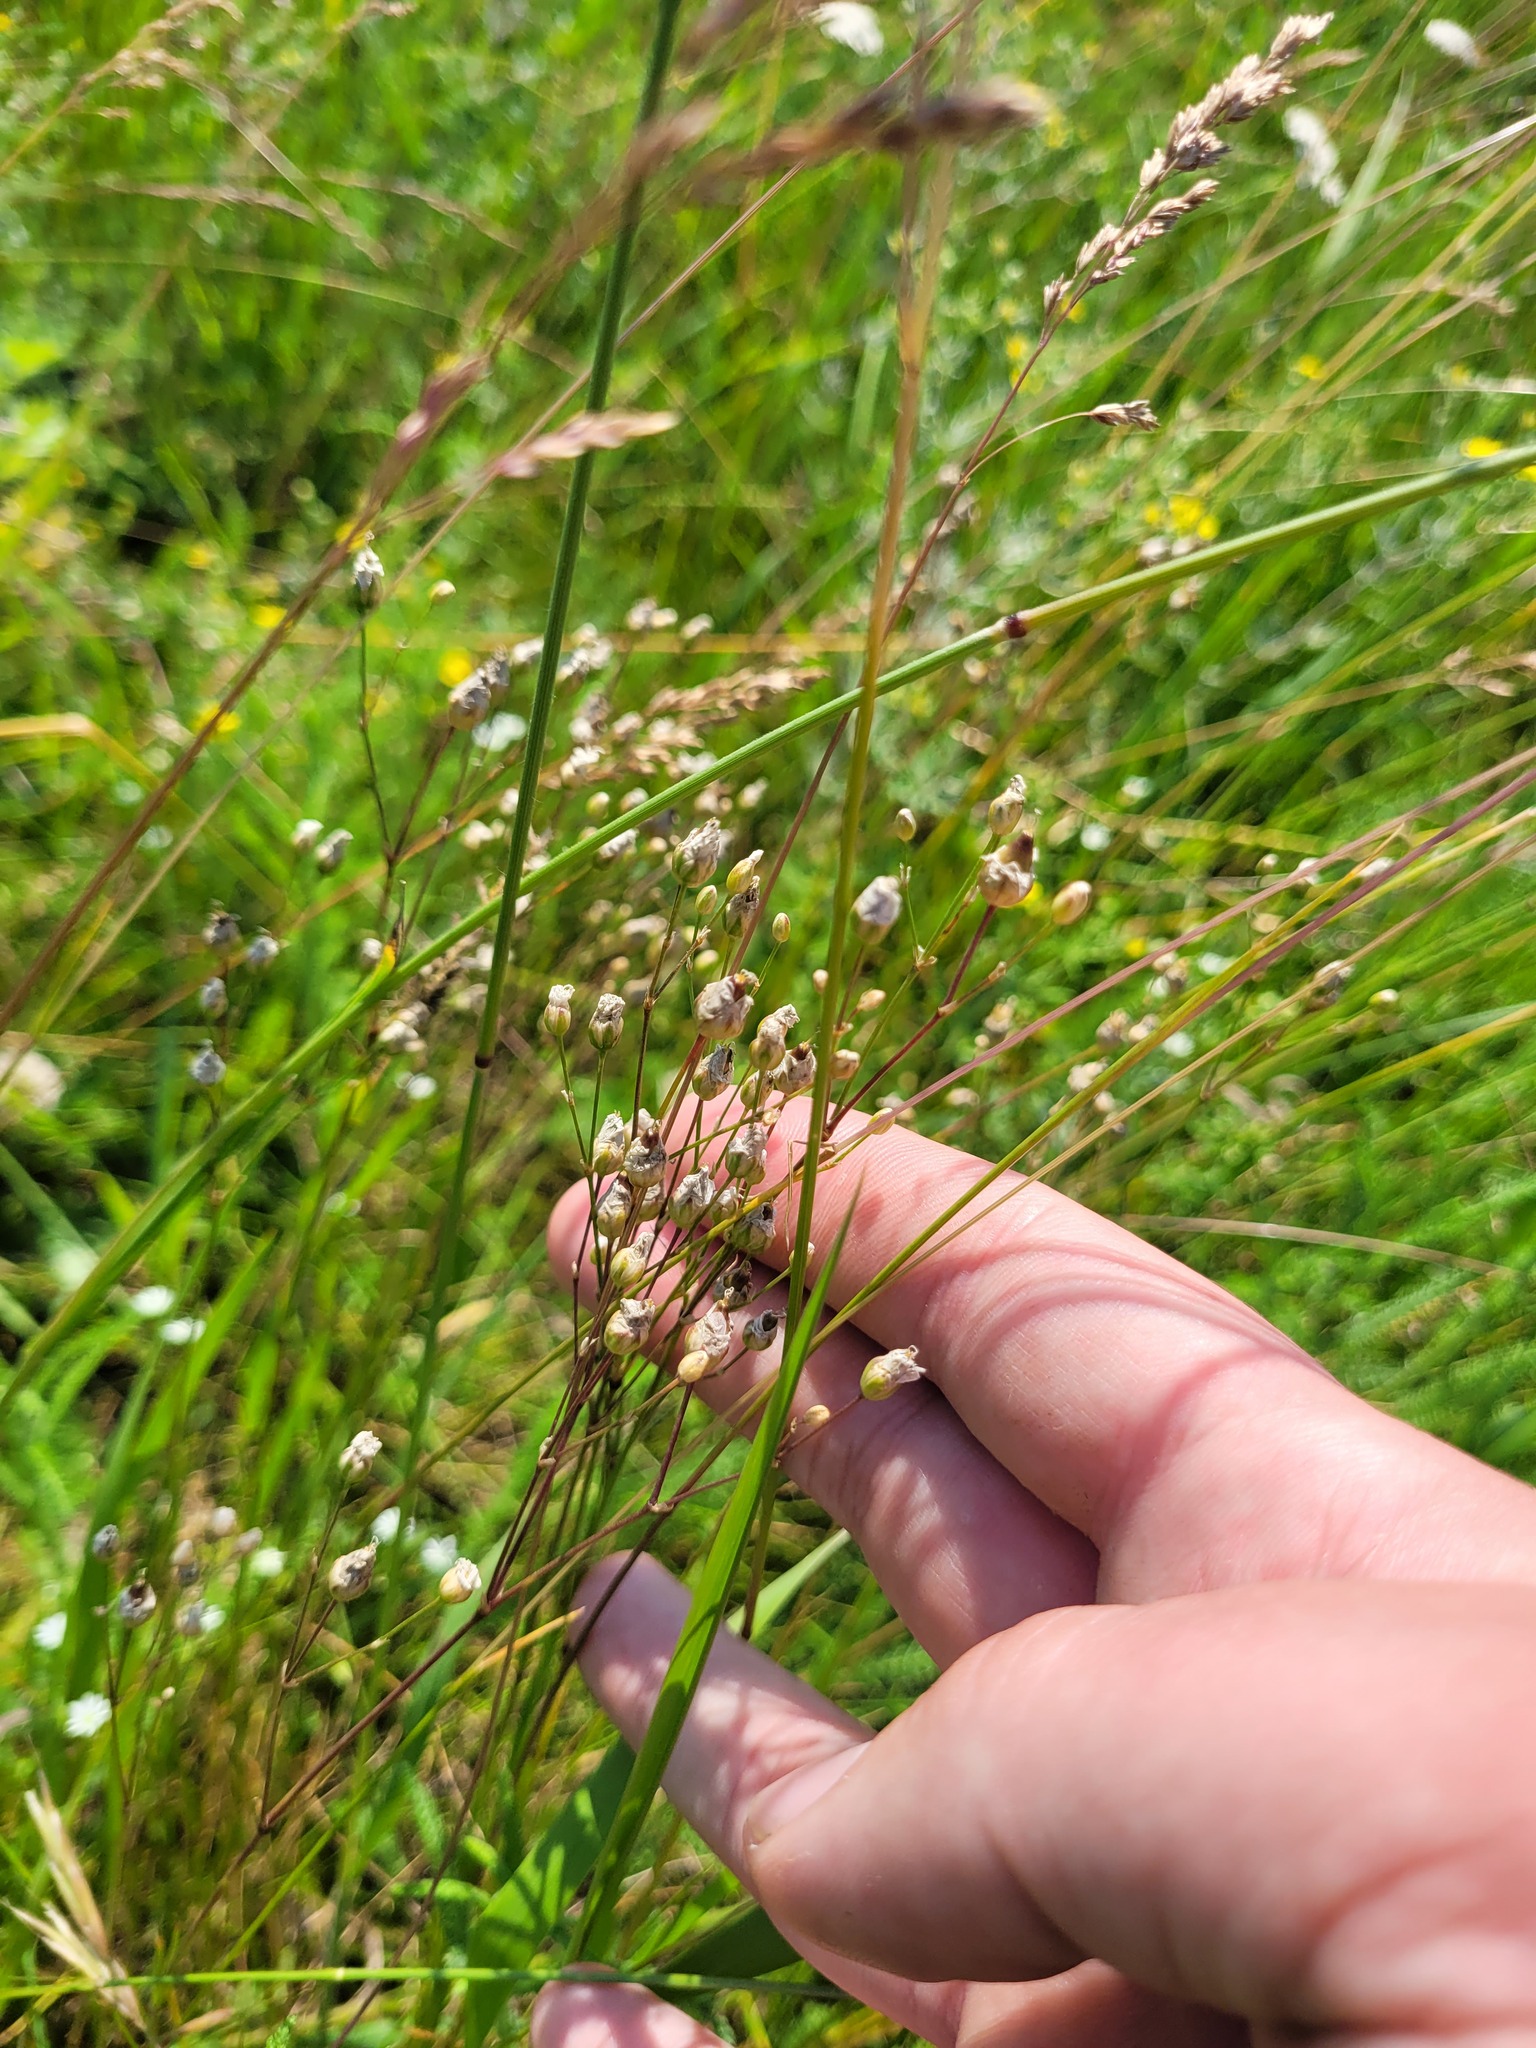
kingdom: Plantae
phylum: Tracheophyta
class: Magnoliopsida
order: Caryophyllales
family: Caryophyllaceae
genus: Eremogone
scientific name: Eremogone saxatilis
